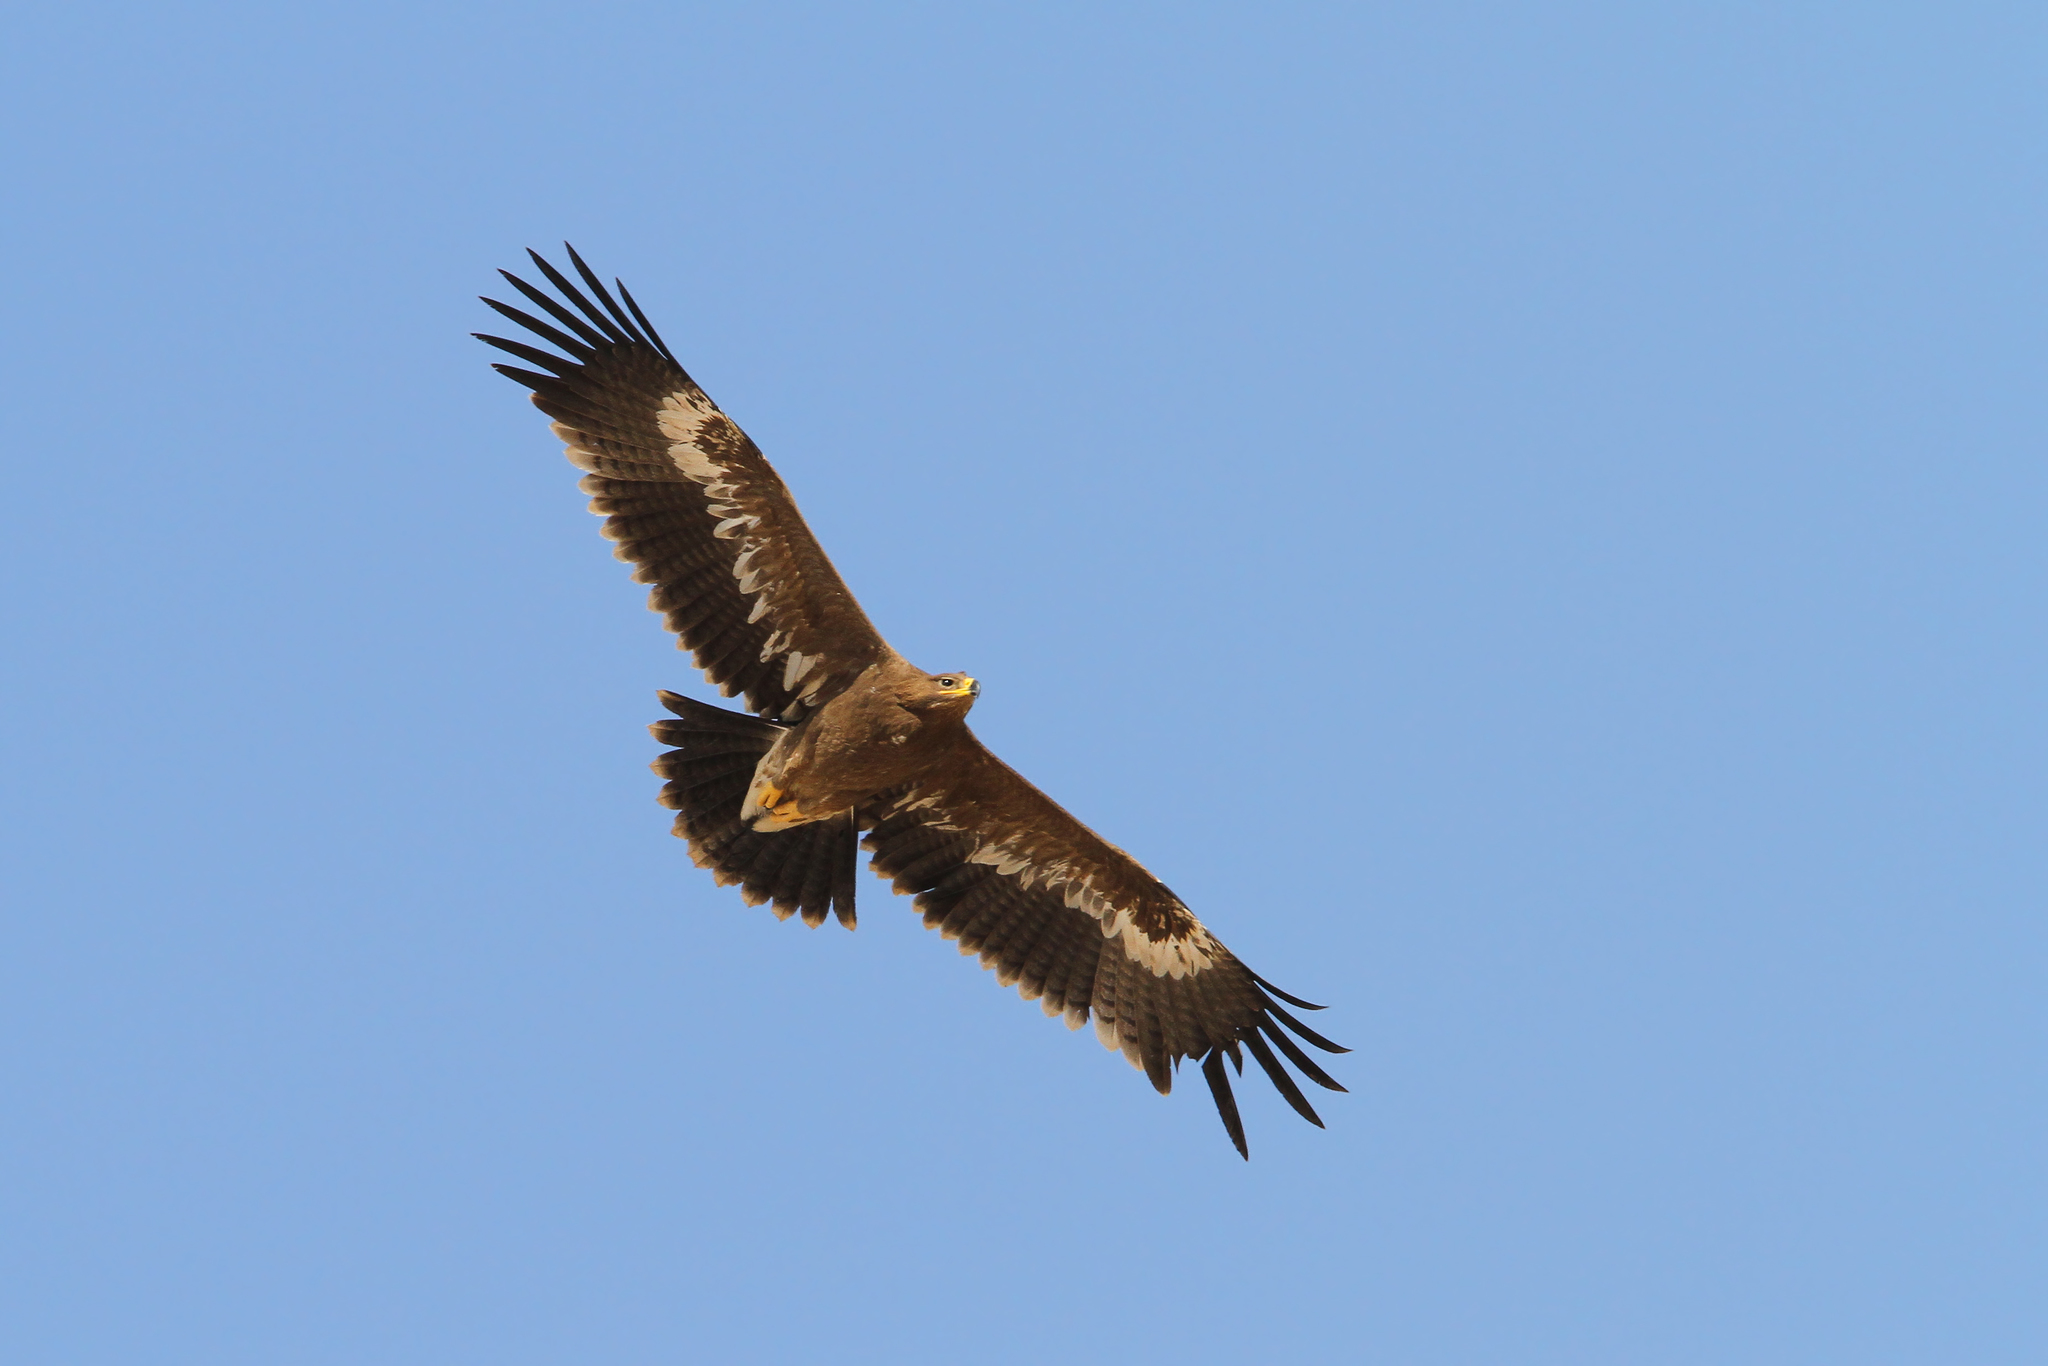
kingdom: Animalia
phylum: Chordata
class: Aves
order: Accipitriformes
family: Accipitridae
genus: Aquila
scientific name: Aquila nipalensis
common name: Steppe eagle
